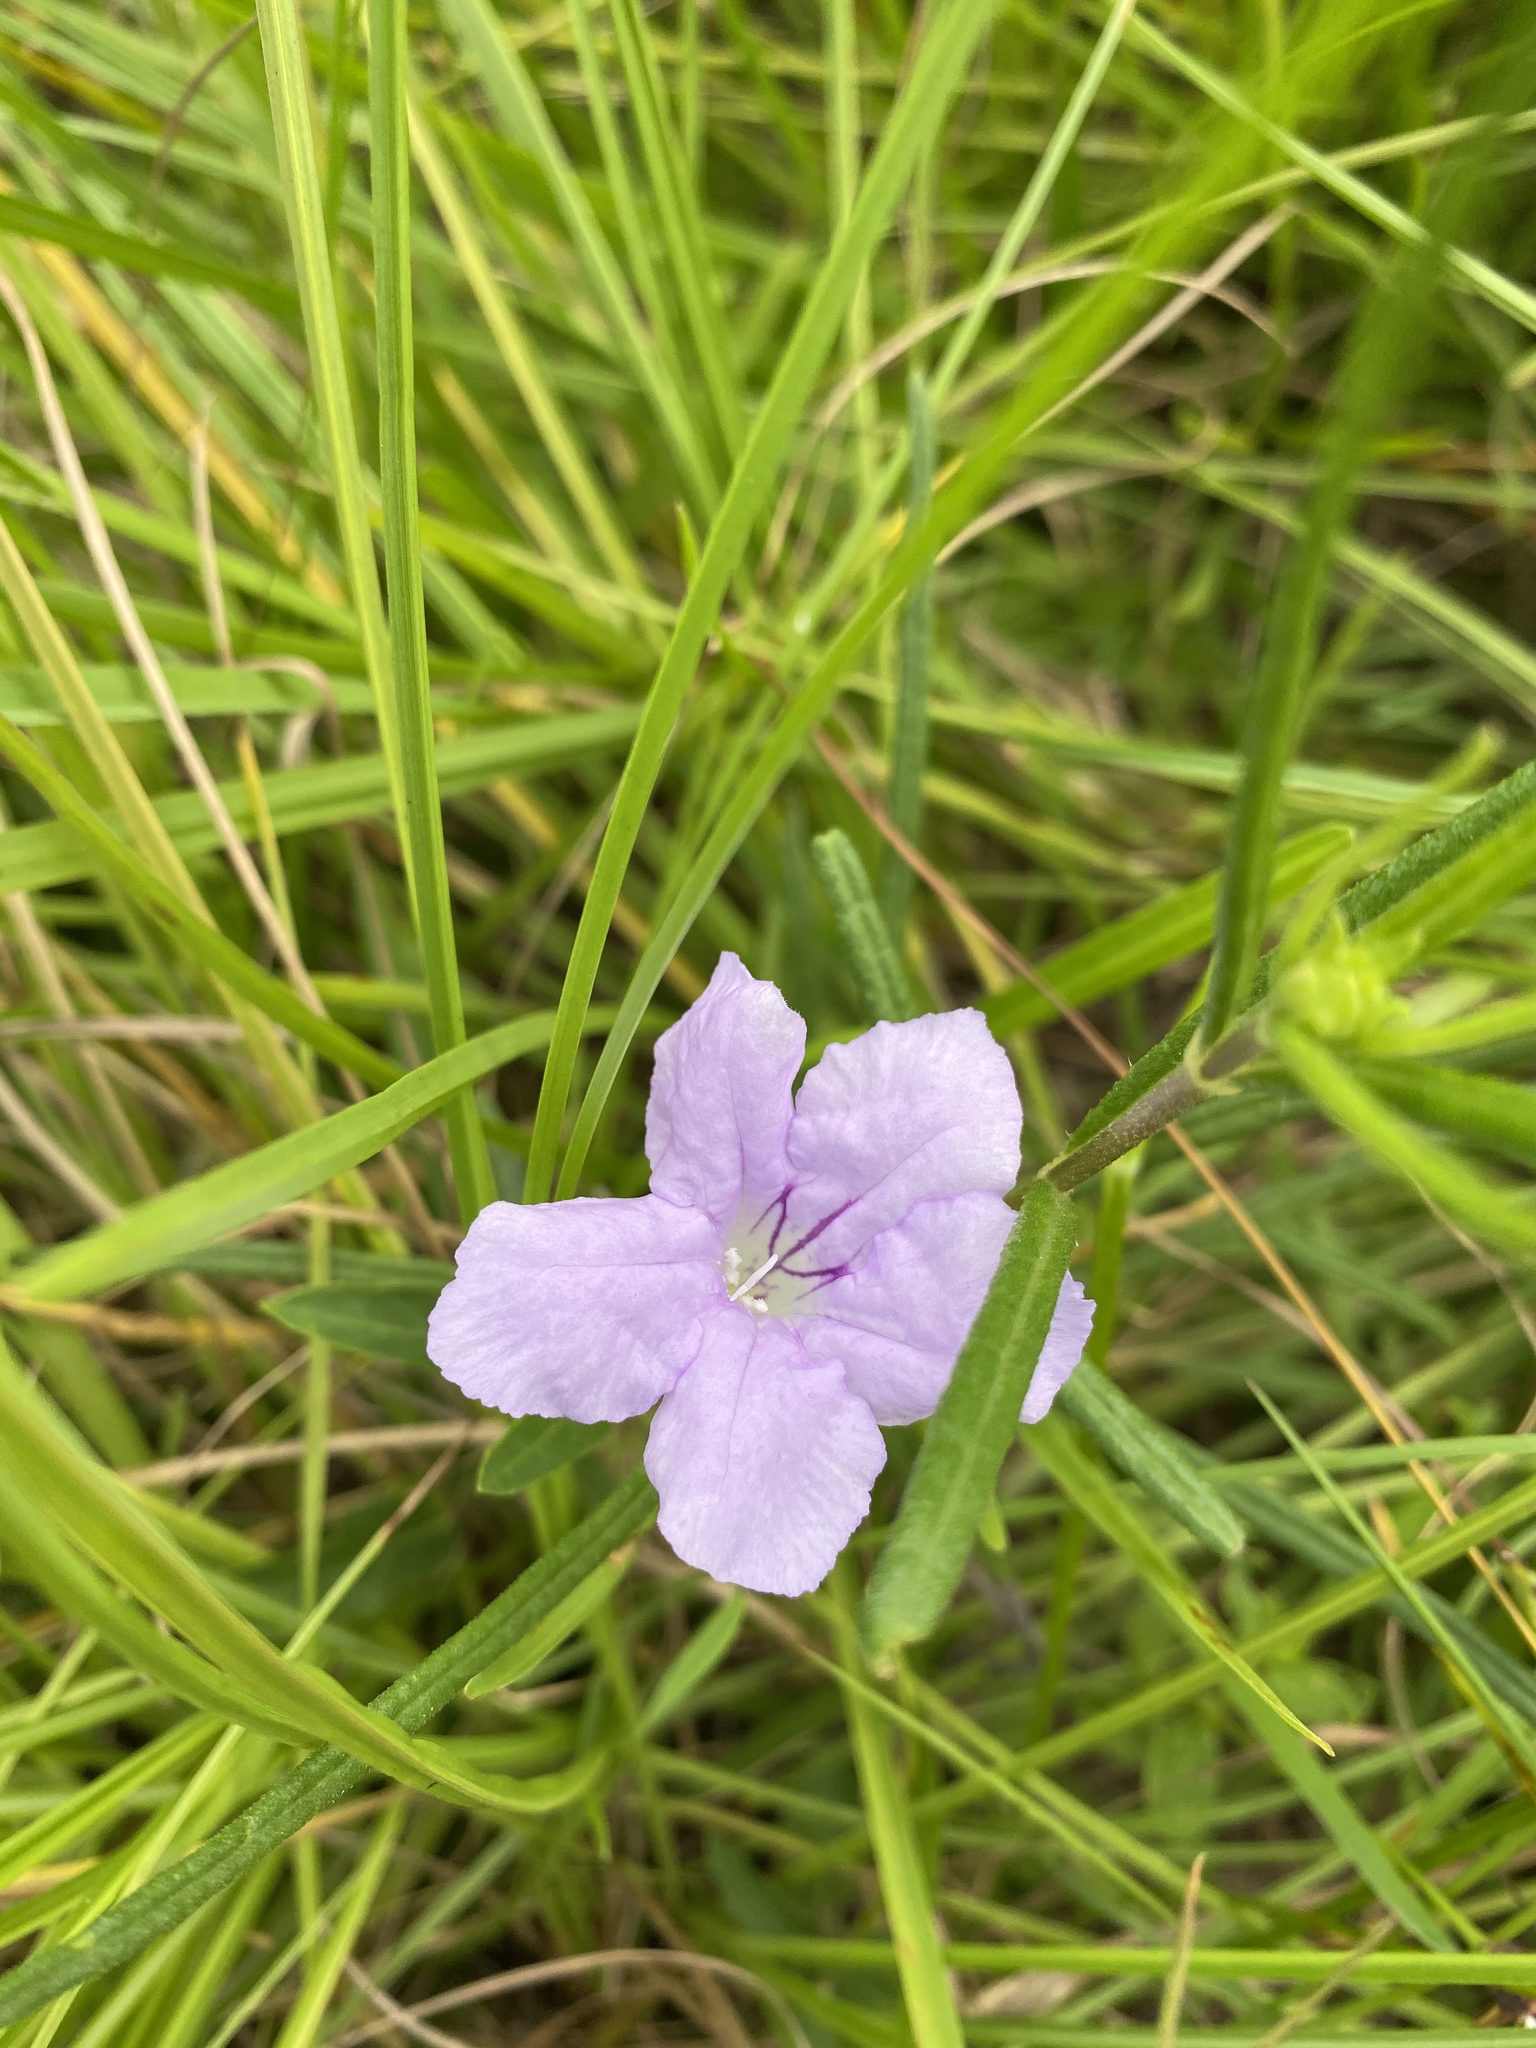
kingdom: Plantae
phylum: Tracheophyta
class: Magnoliopsida
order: Lamiales
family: Acanthaceae
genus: Ruellia
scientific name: Ruellia humilis
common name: Fringe-leaf ruellia
